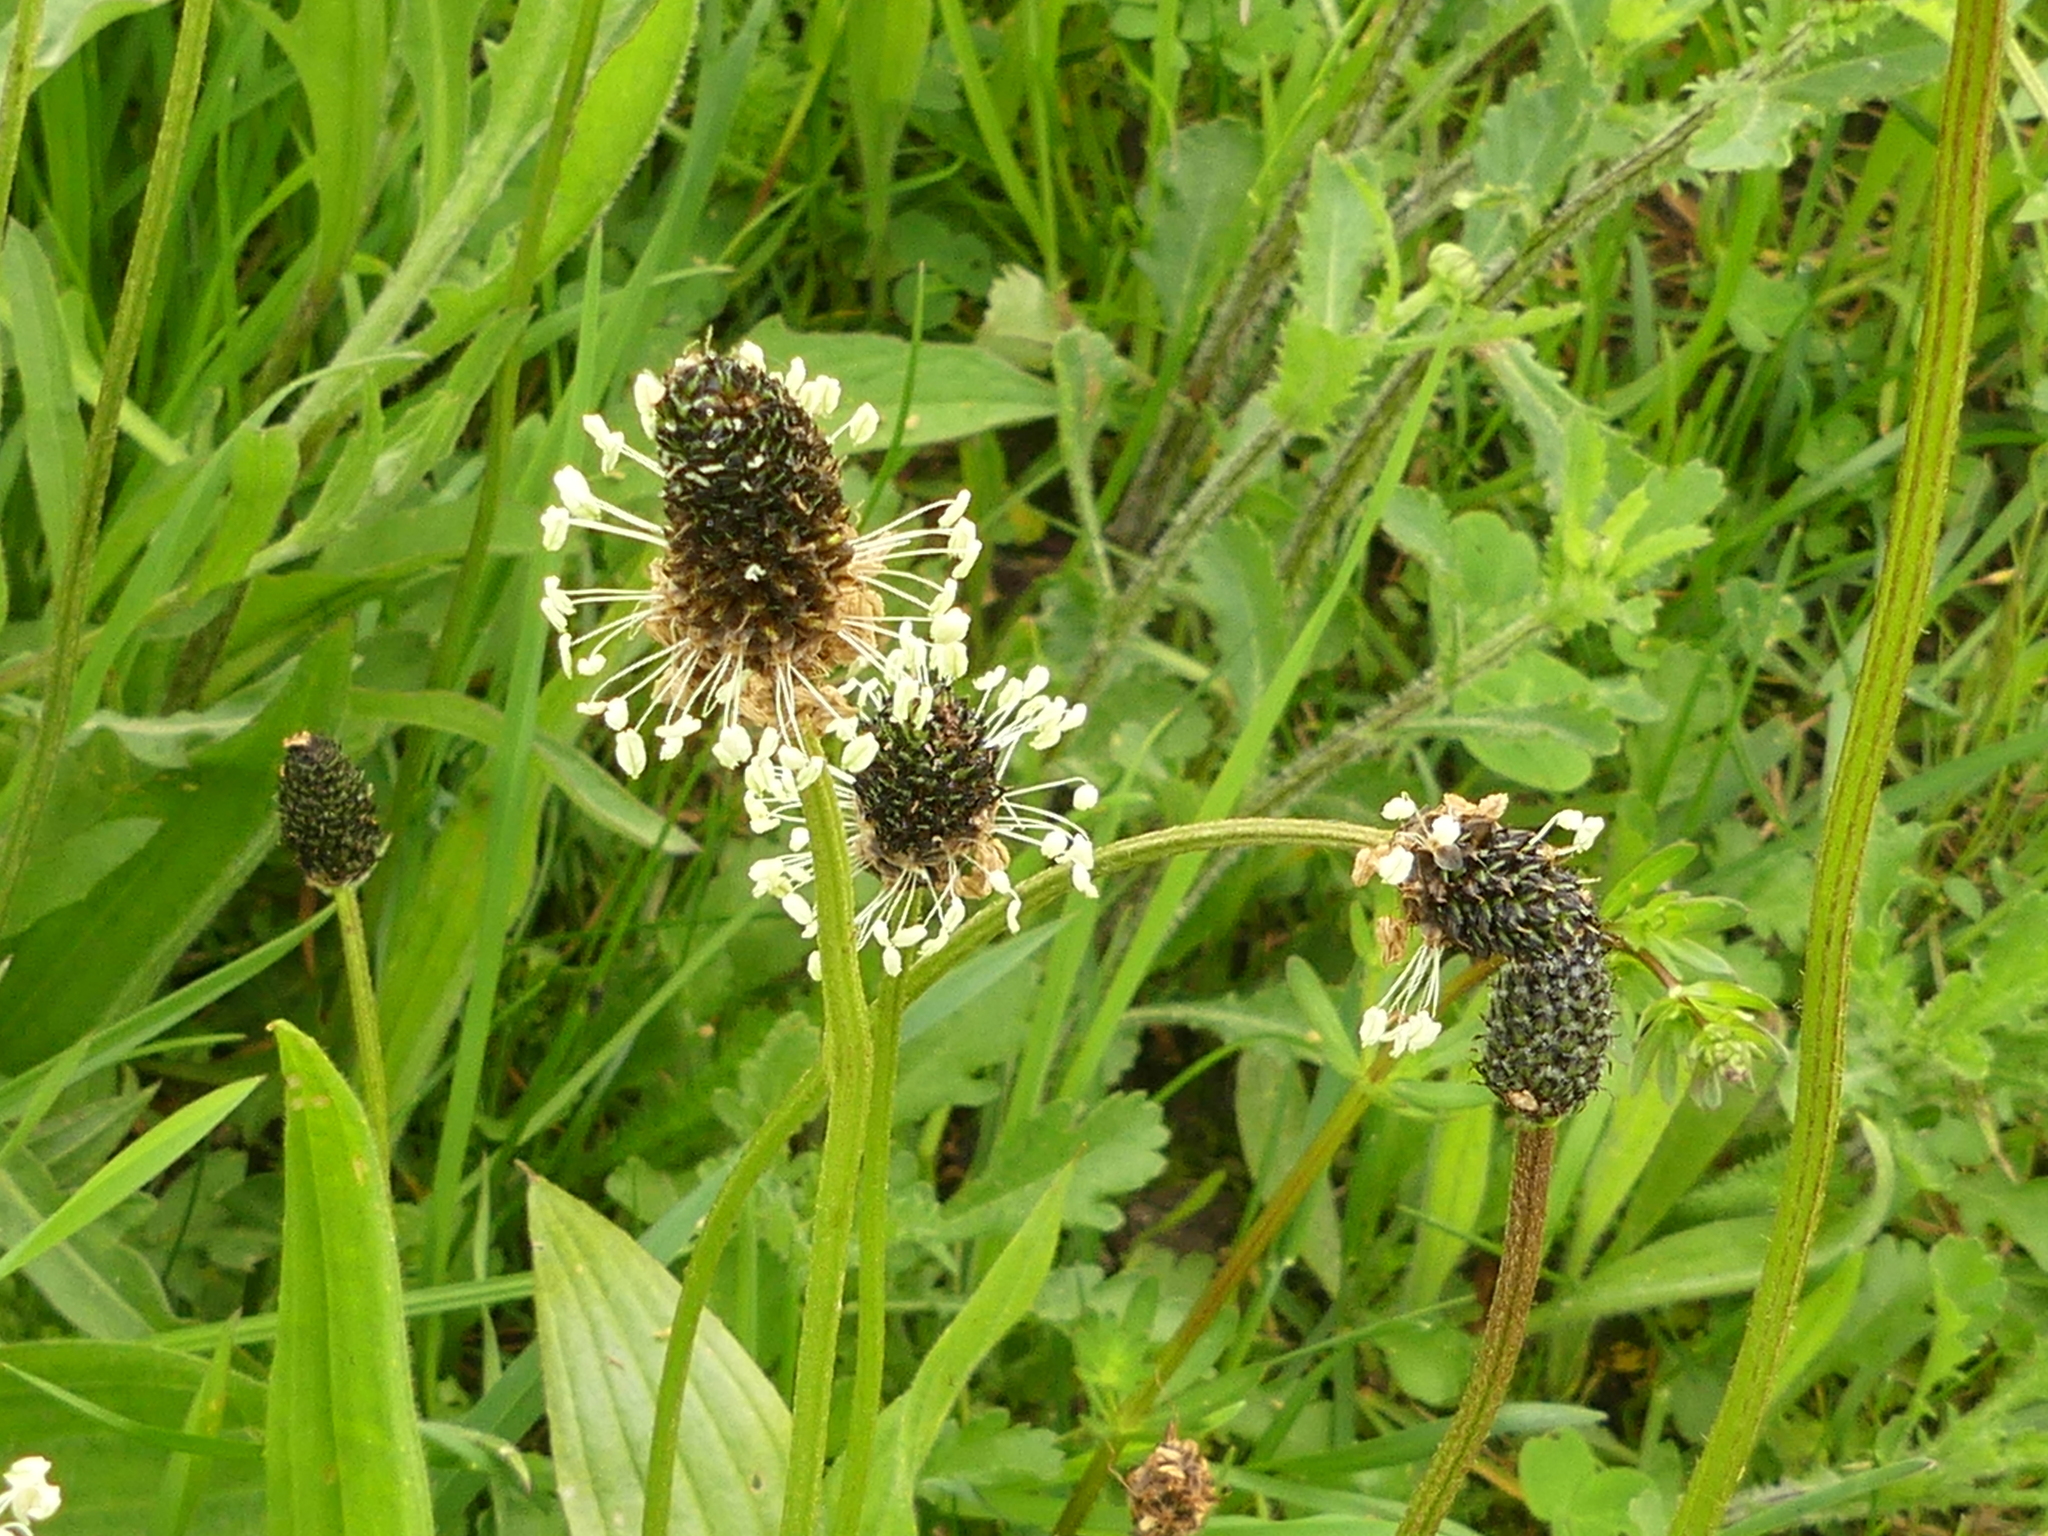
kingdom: Plantae
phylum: Tracheophyta
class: Magnoliopsida
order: Lamiales
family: Plantaginaceae
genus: Plantago
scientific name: Plantago lanceolata
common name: Ribwort plantain
